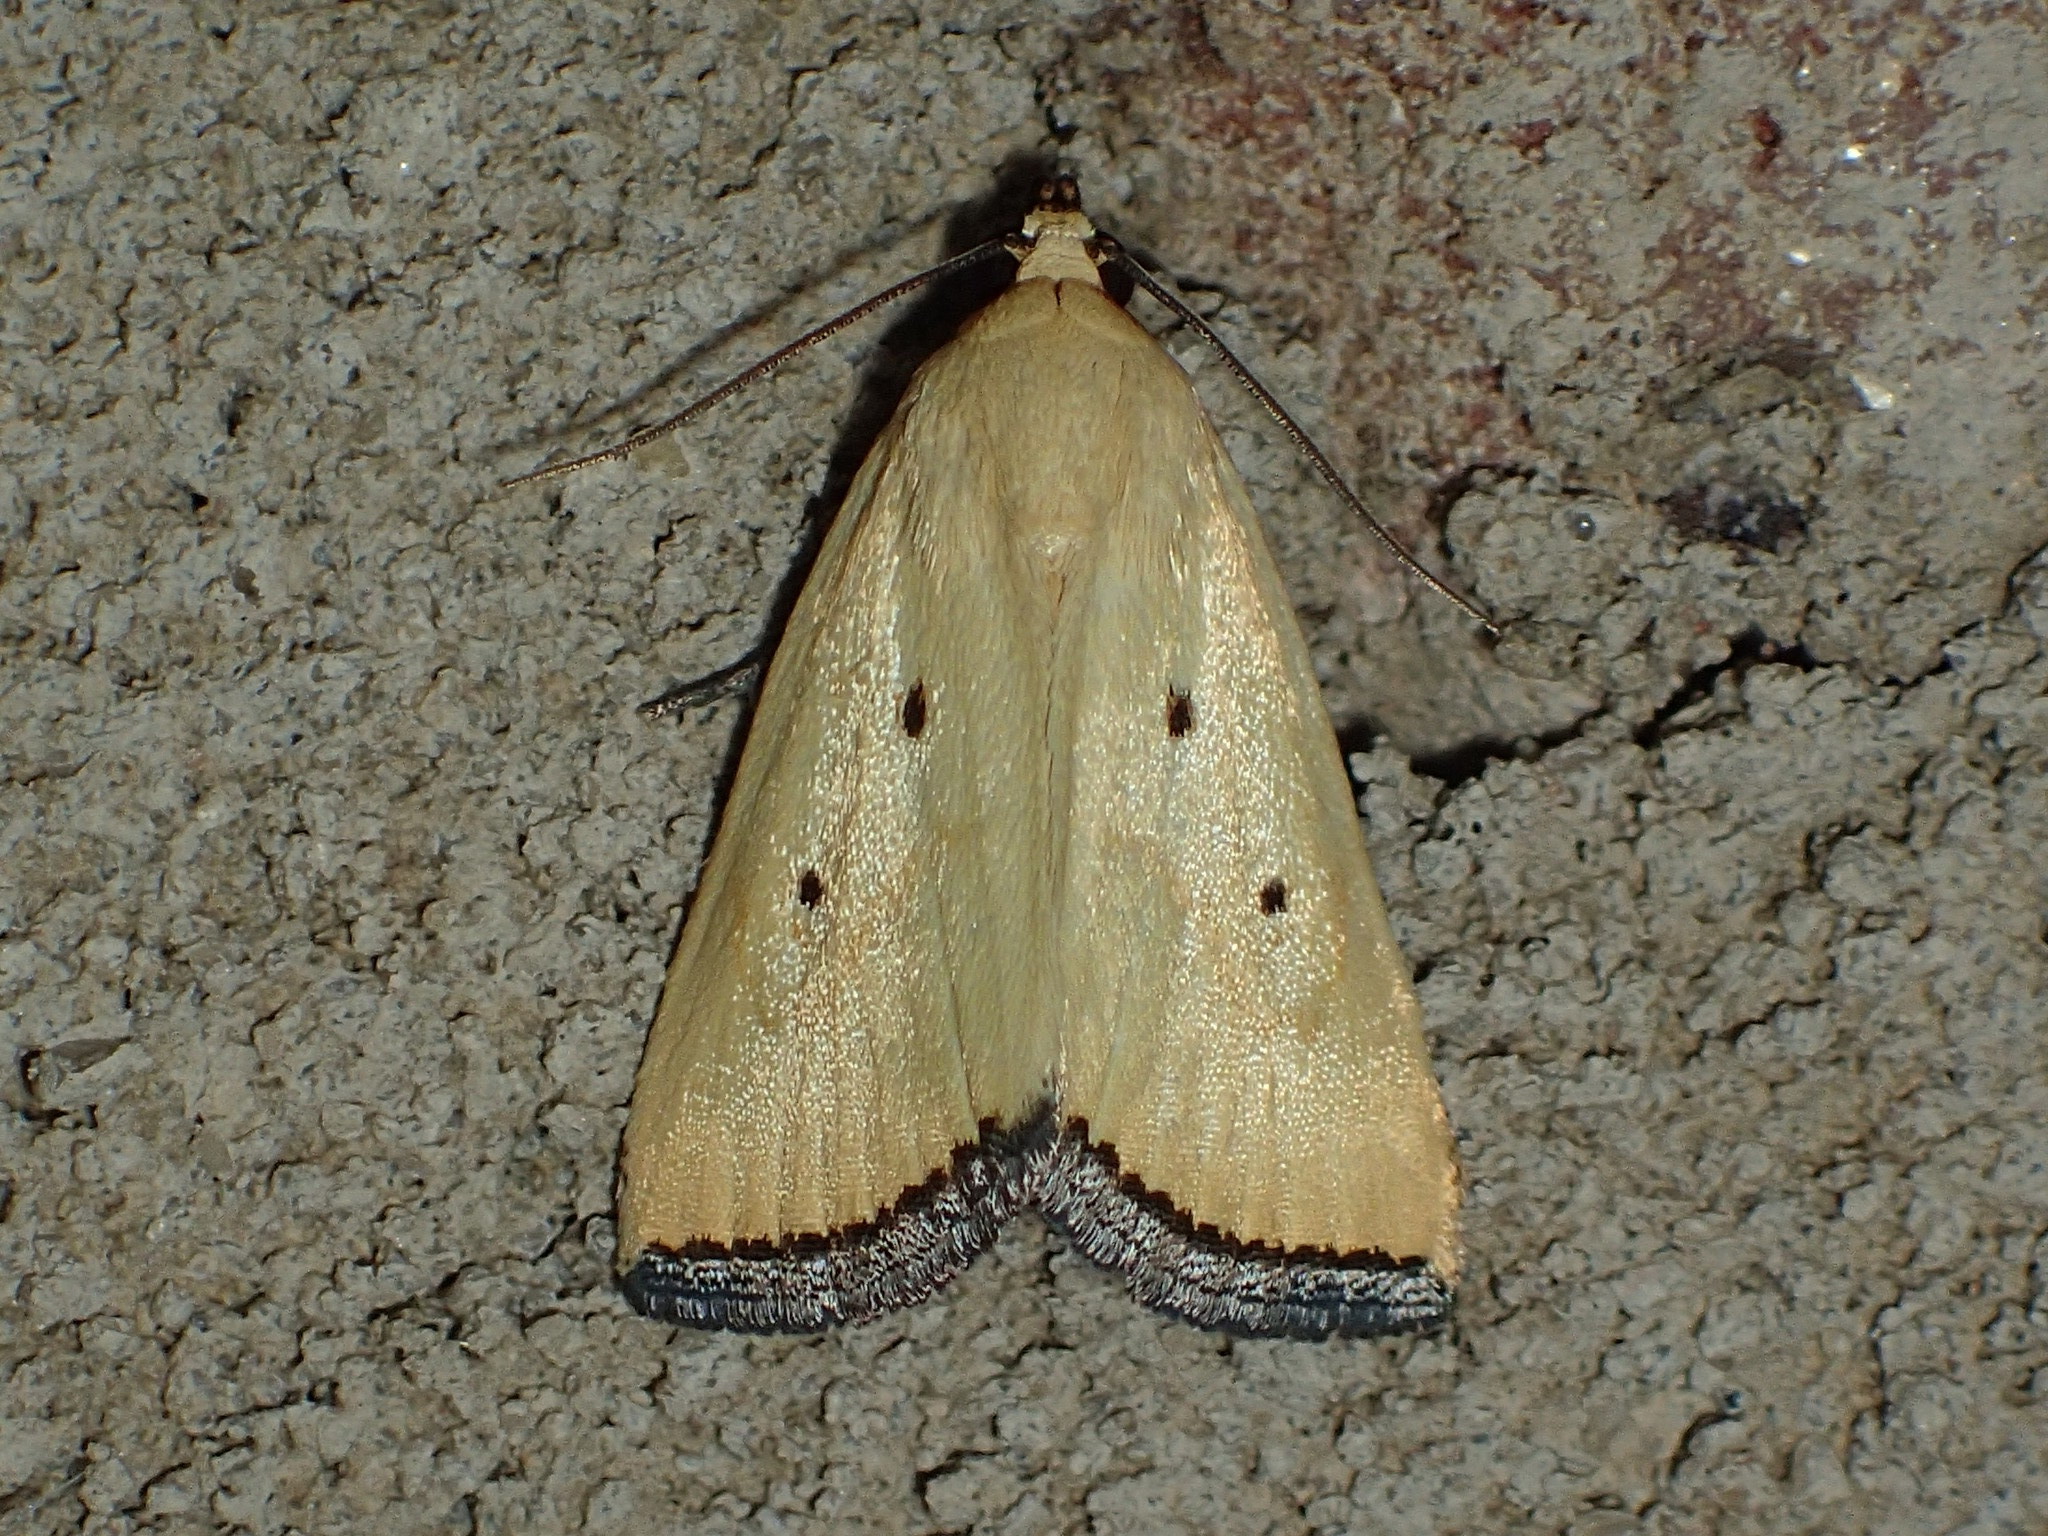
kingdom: Animalia
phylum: Arthropoda
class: Insecta
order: Lepidoptera
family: Noctuidae
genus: Marimatha
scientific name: Marimatha nigrofimbria
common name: Black-bordered lemon moth
